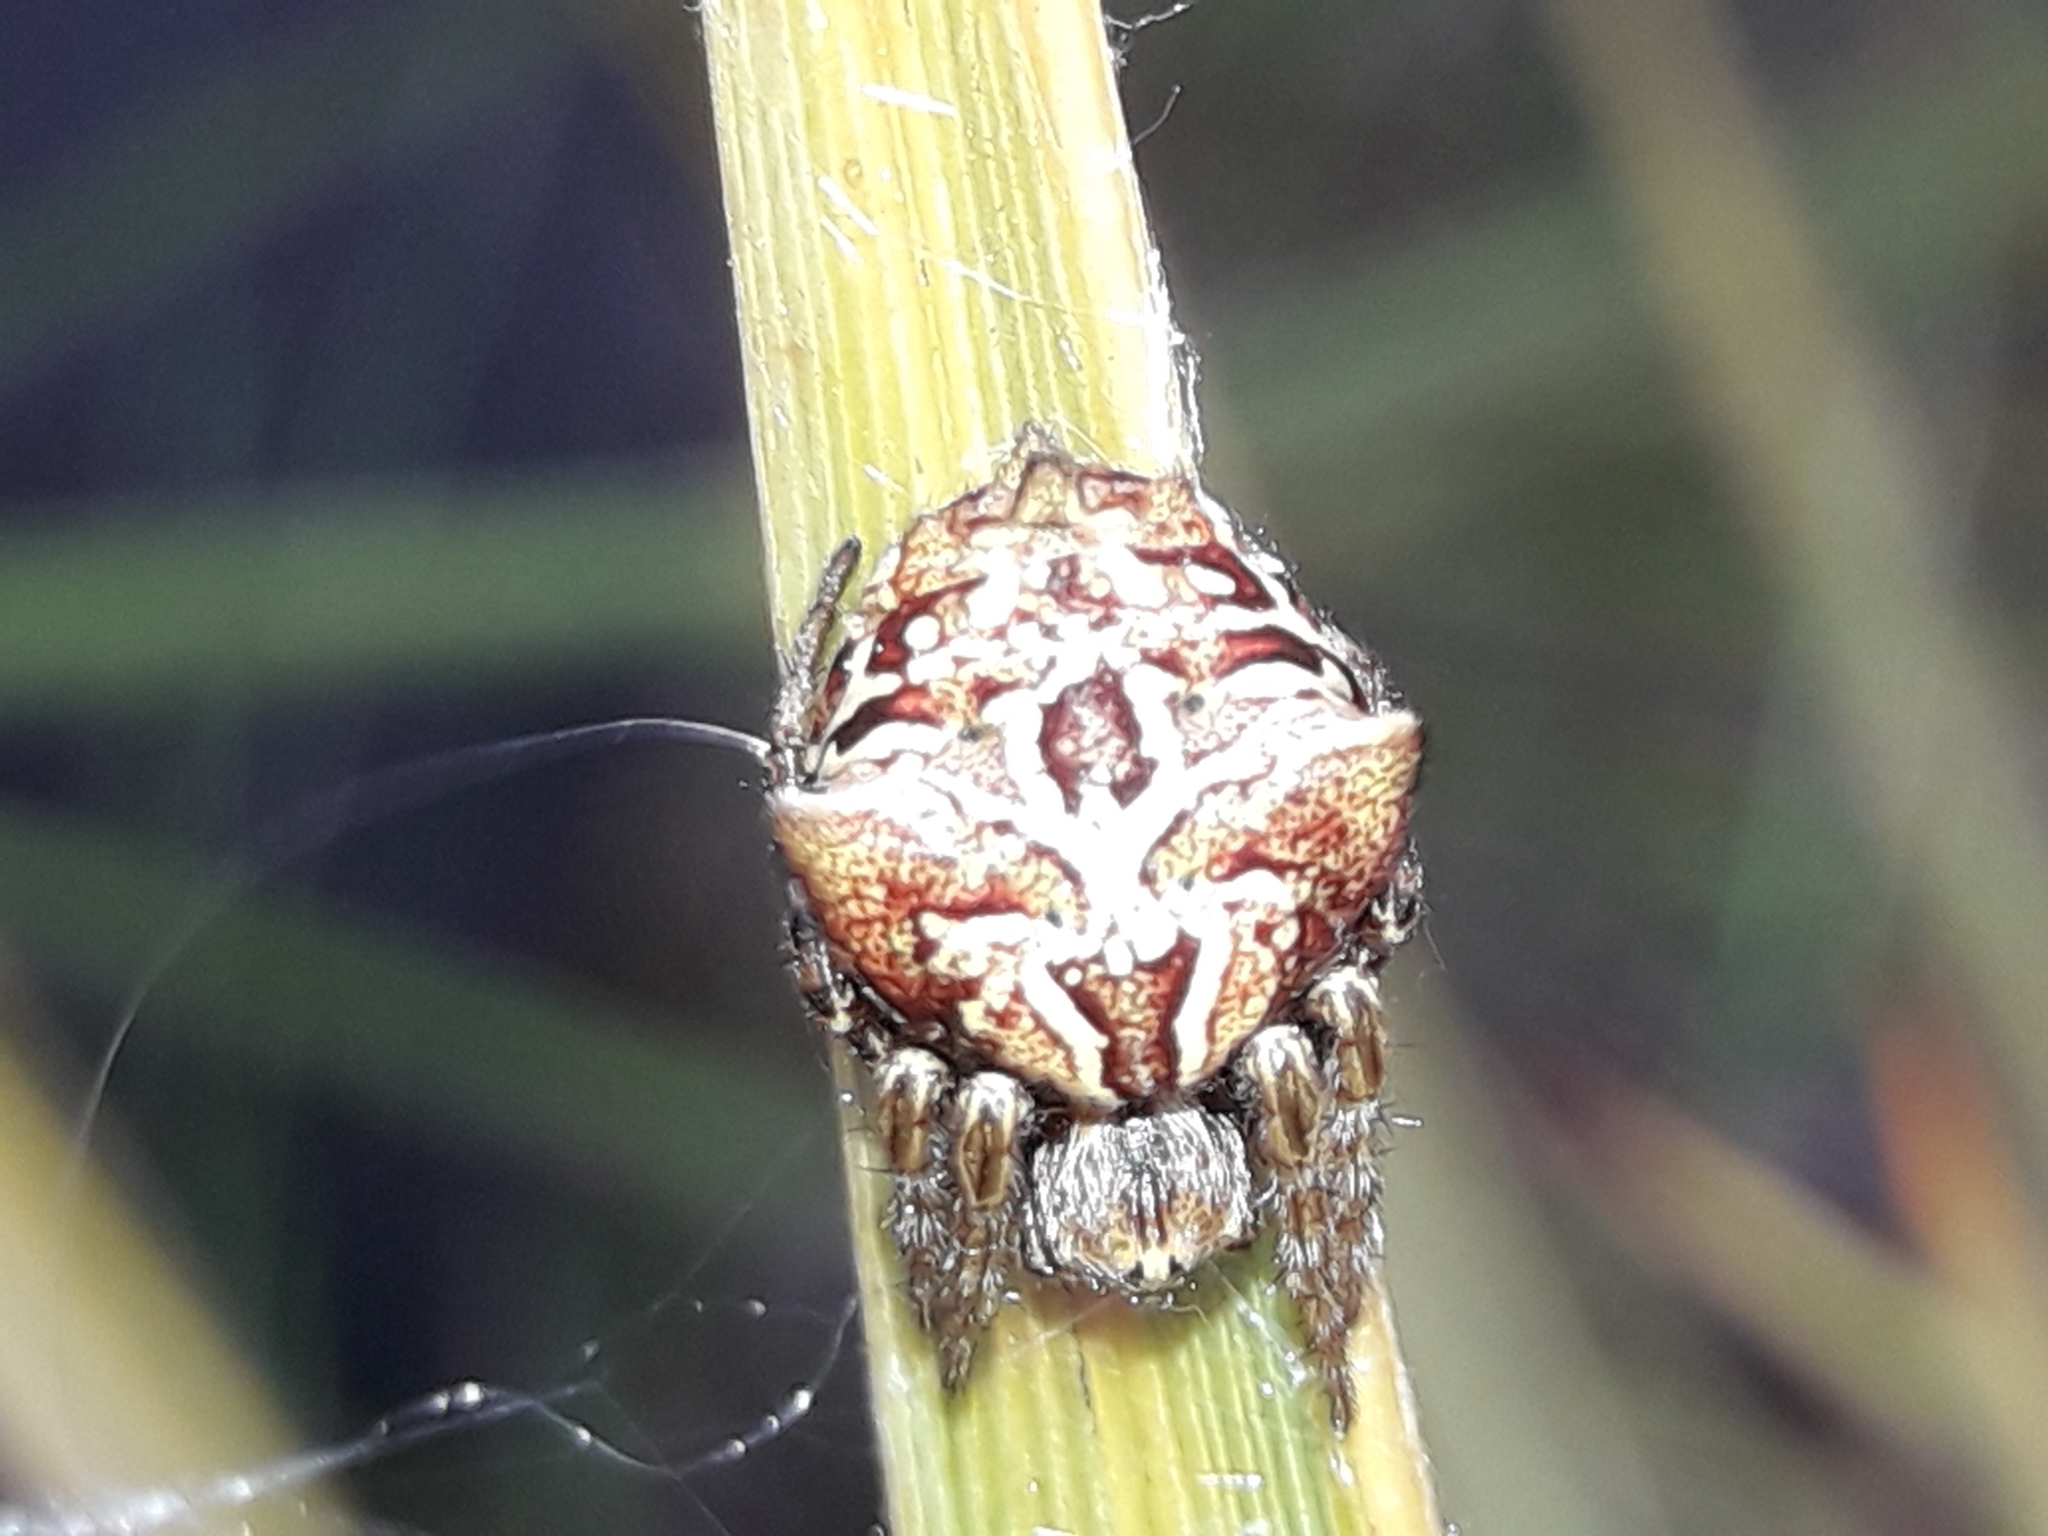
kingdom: Animalia
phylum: Arthropoda
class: Arachnida
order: Araneae
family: Araneidae
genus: Acroaspis
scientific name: Acroaspis decorosa
